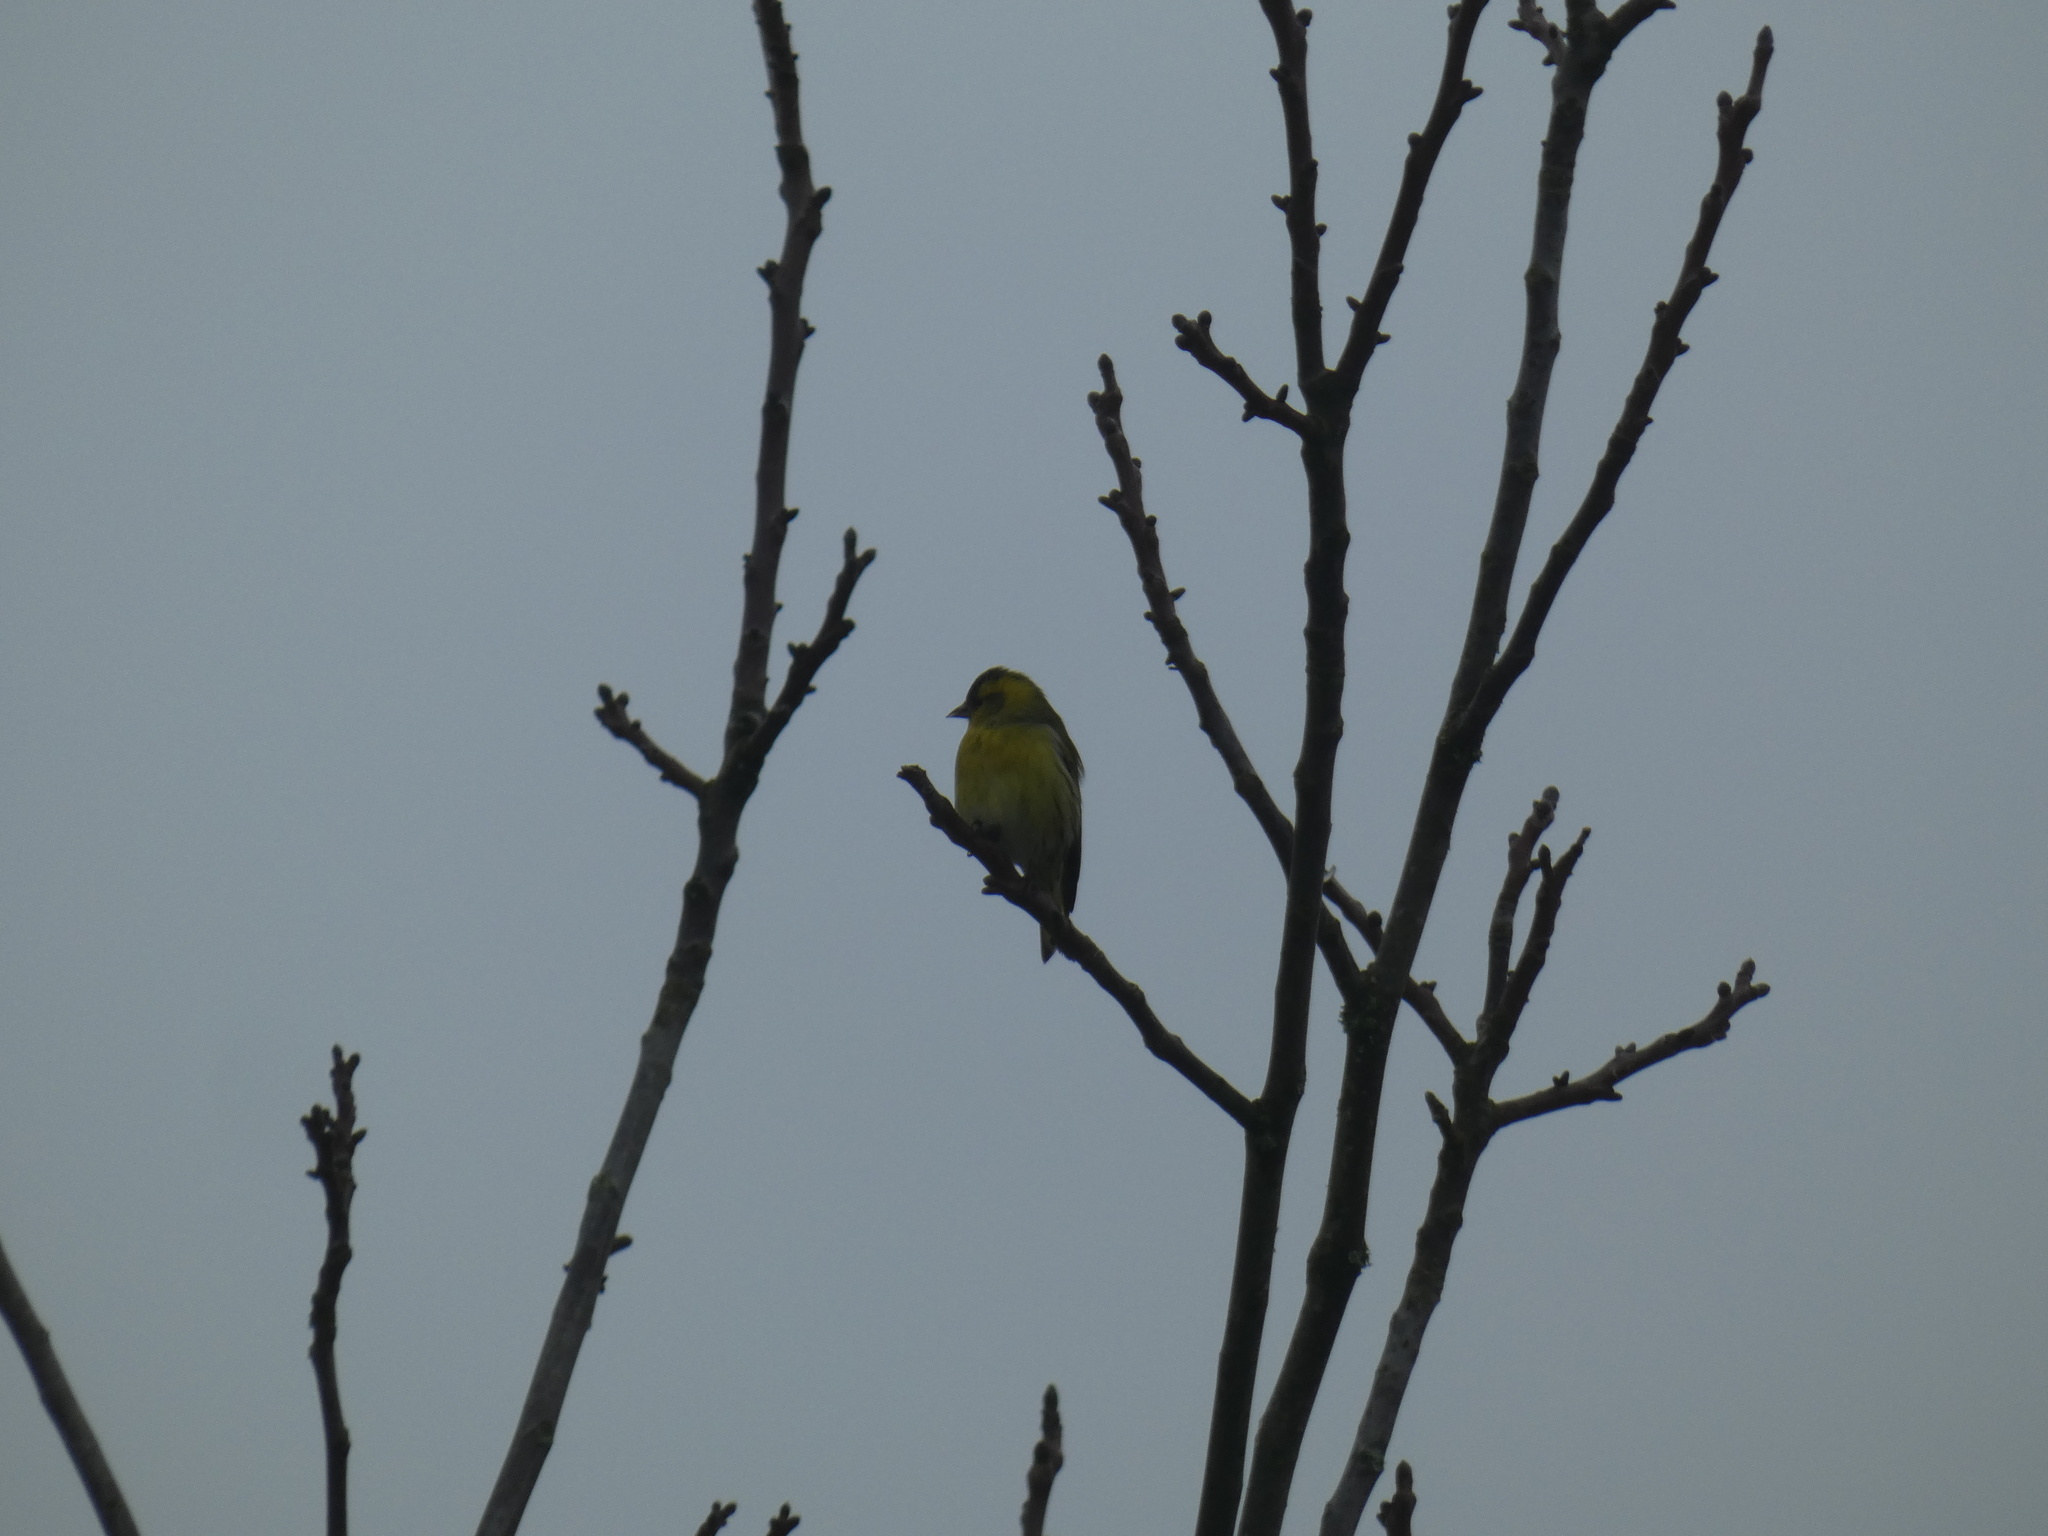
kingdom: Animalia
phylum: Chordata
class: Aves
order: Passeriformes
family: Fringillidae
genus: Spinus
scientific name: Spinus spinus
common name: Eurasian siskin
